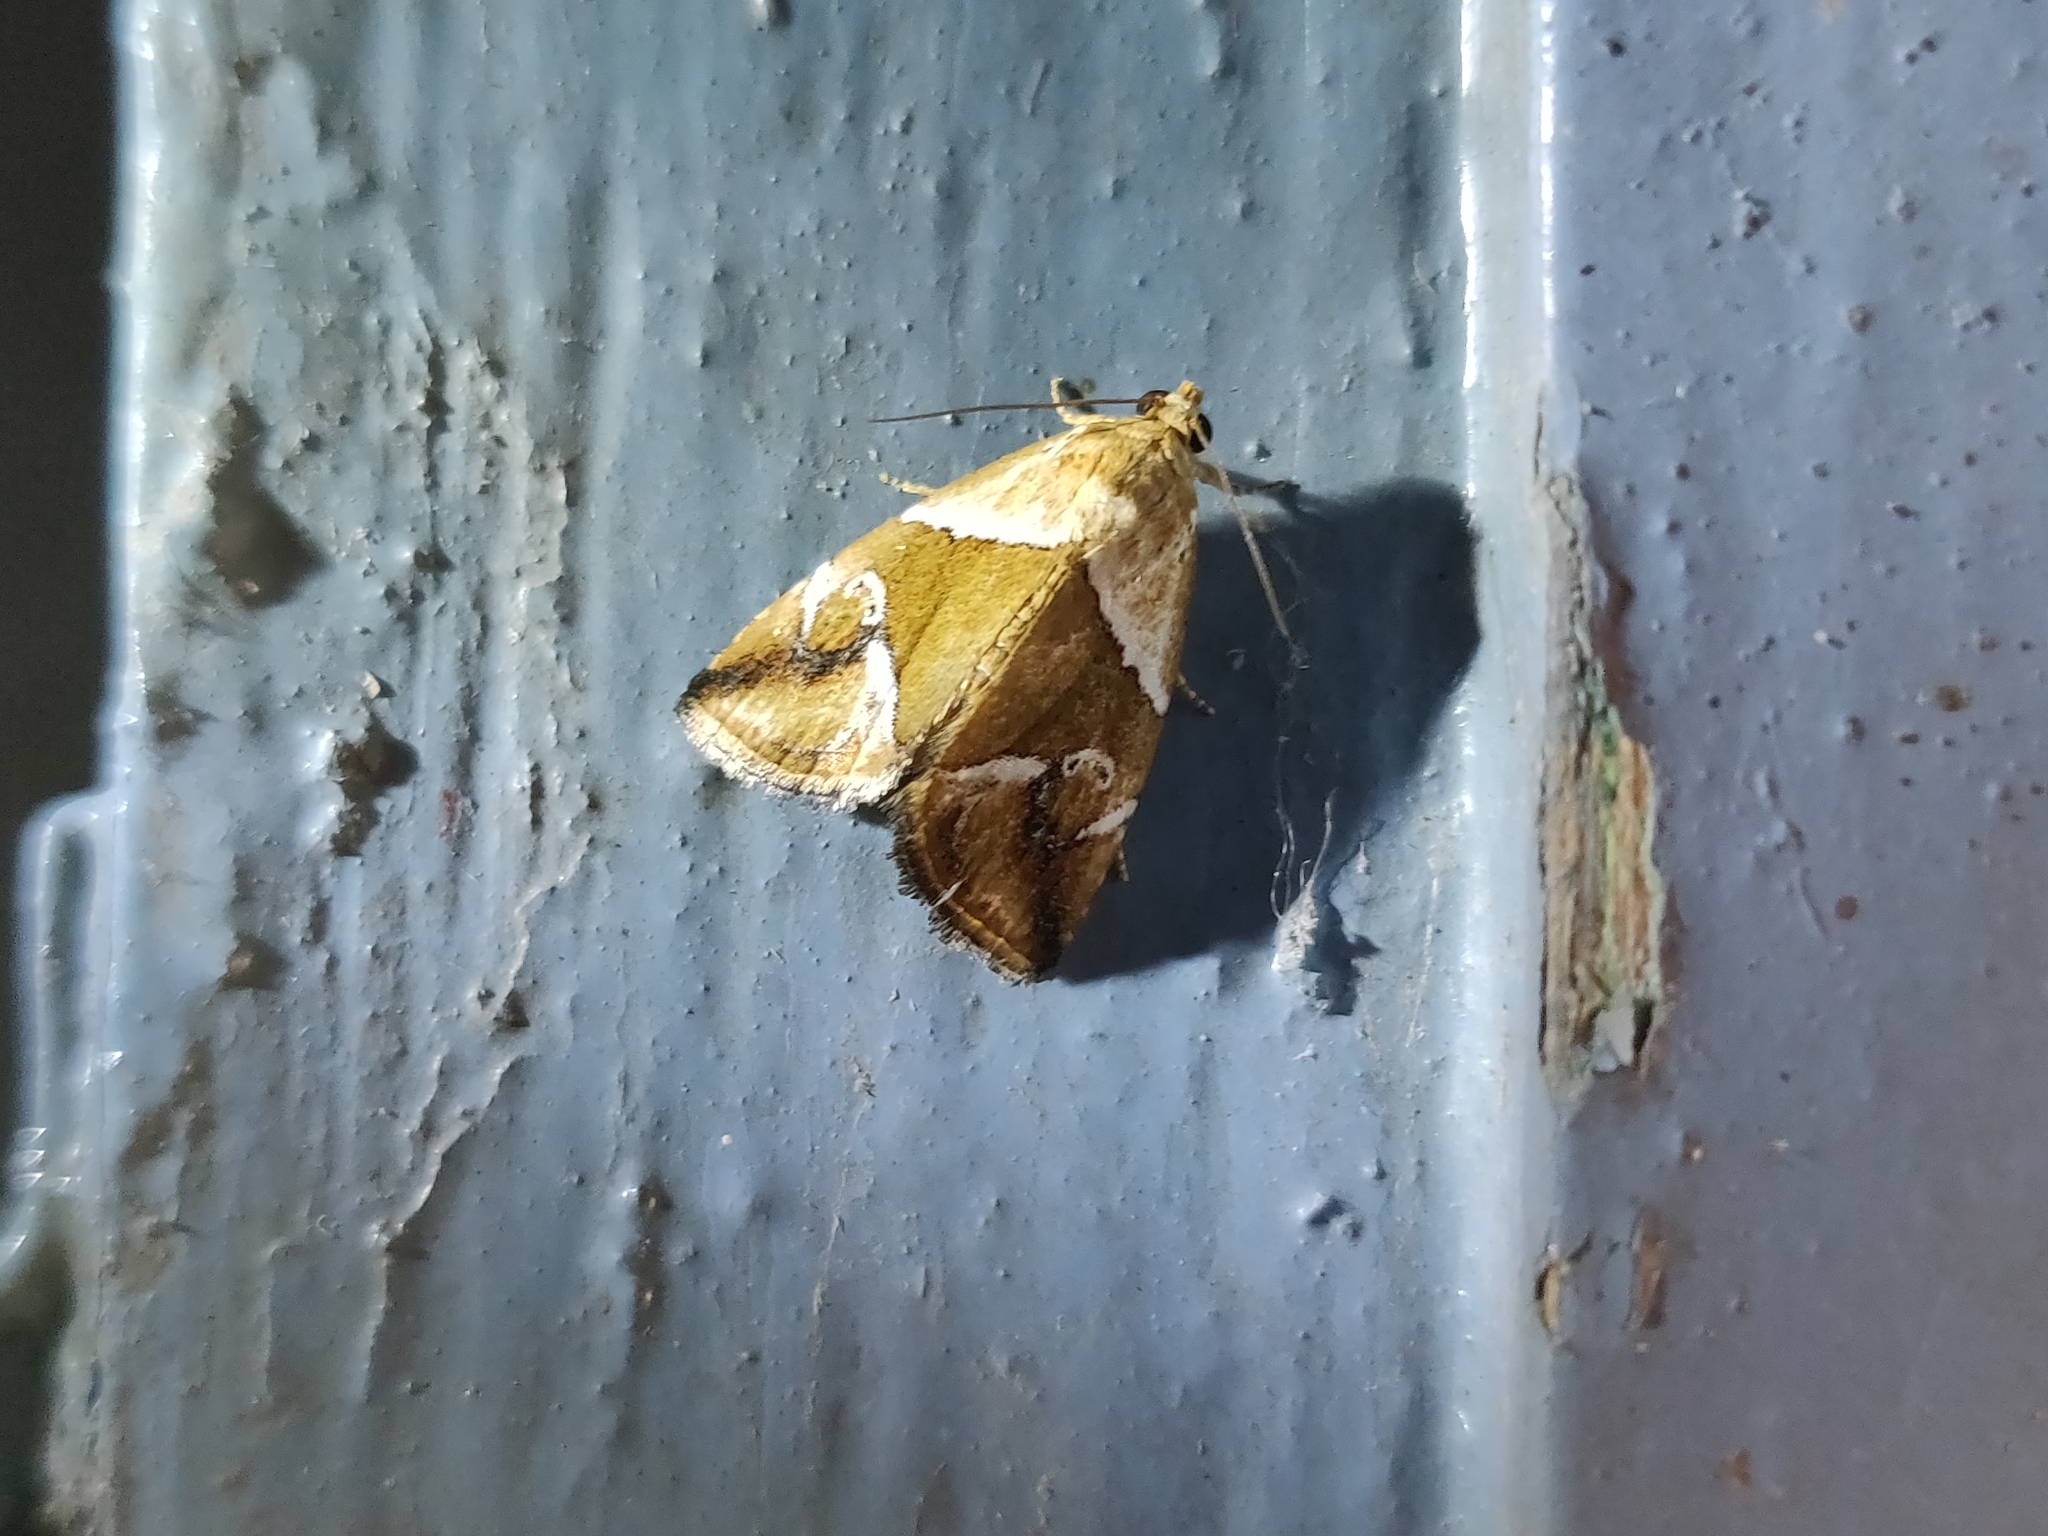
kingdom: Animalia
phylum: Arthropoda
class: Insecta
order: Lepidoptera
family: Noctuidae
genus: Maliattha
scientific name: Maliattha separata
